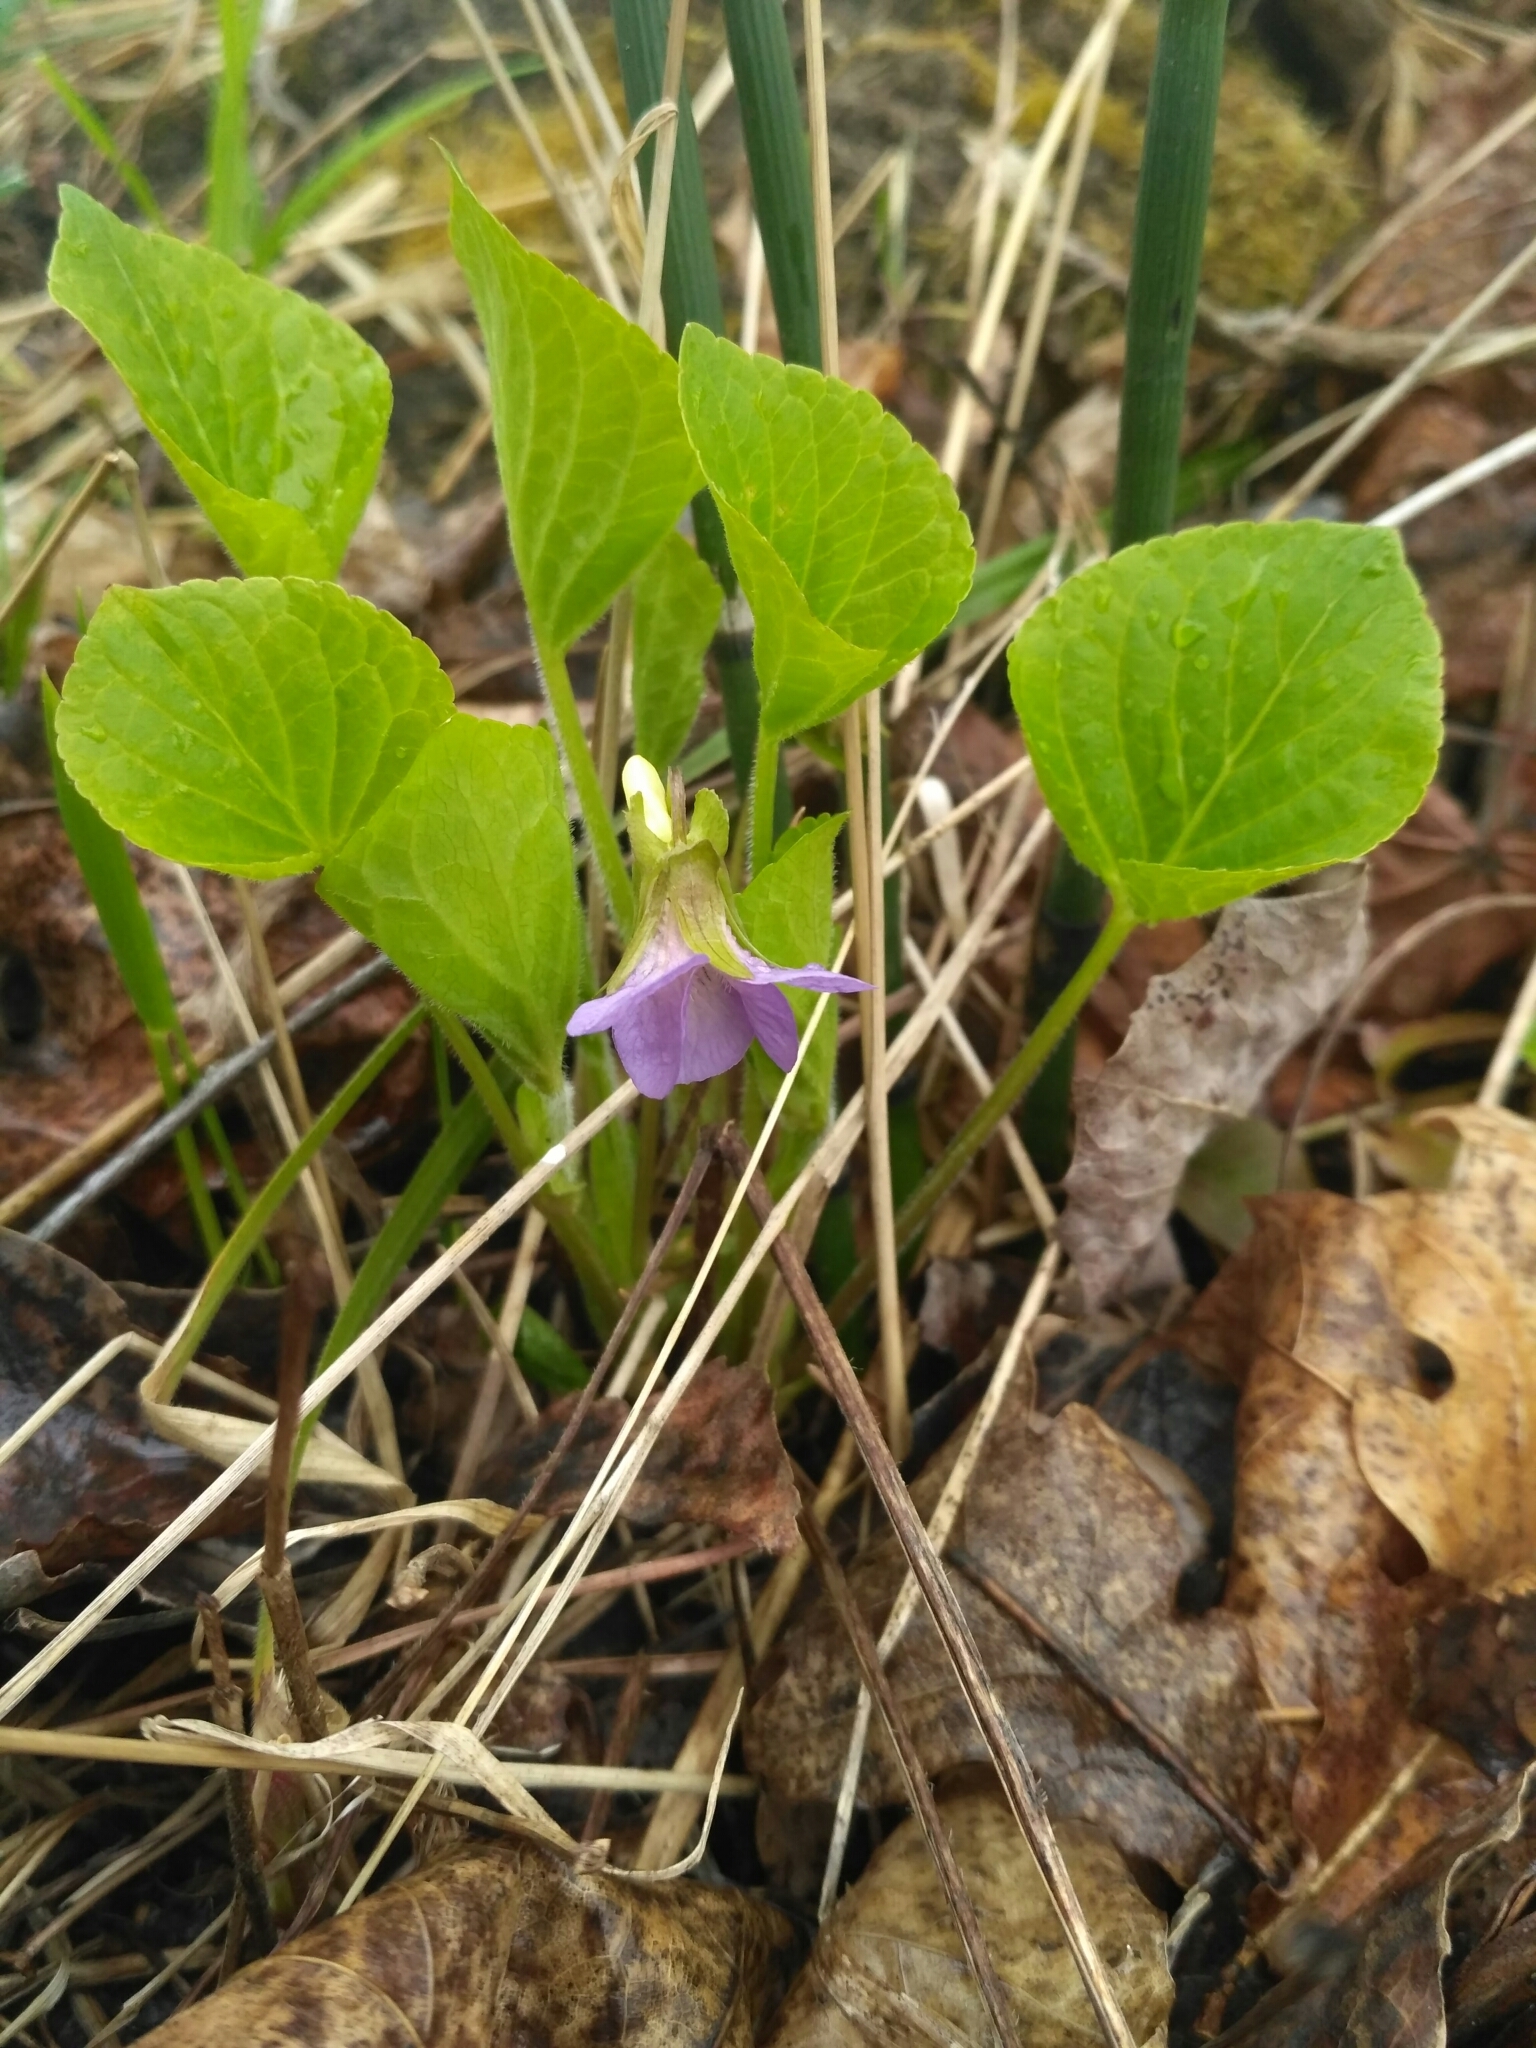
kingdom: Plantae
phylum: Tracheophyta
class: Magnoliopsida
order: Malpighiales
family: Violaceae
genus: Viola
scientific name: Viola mirabilis
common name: Wonder violet
